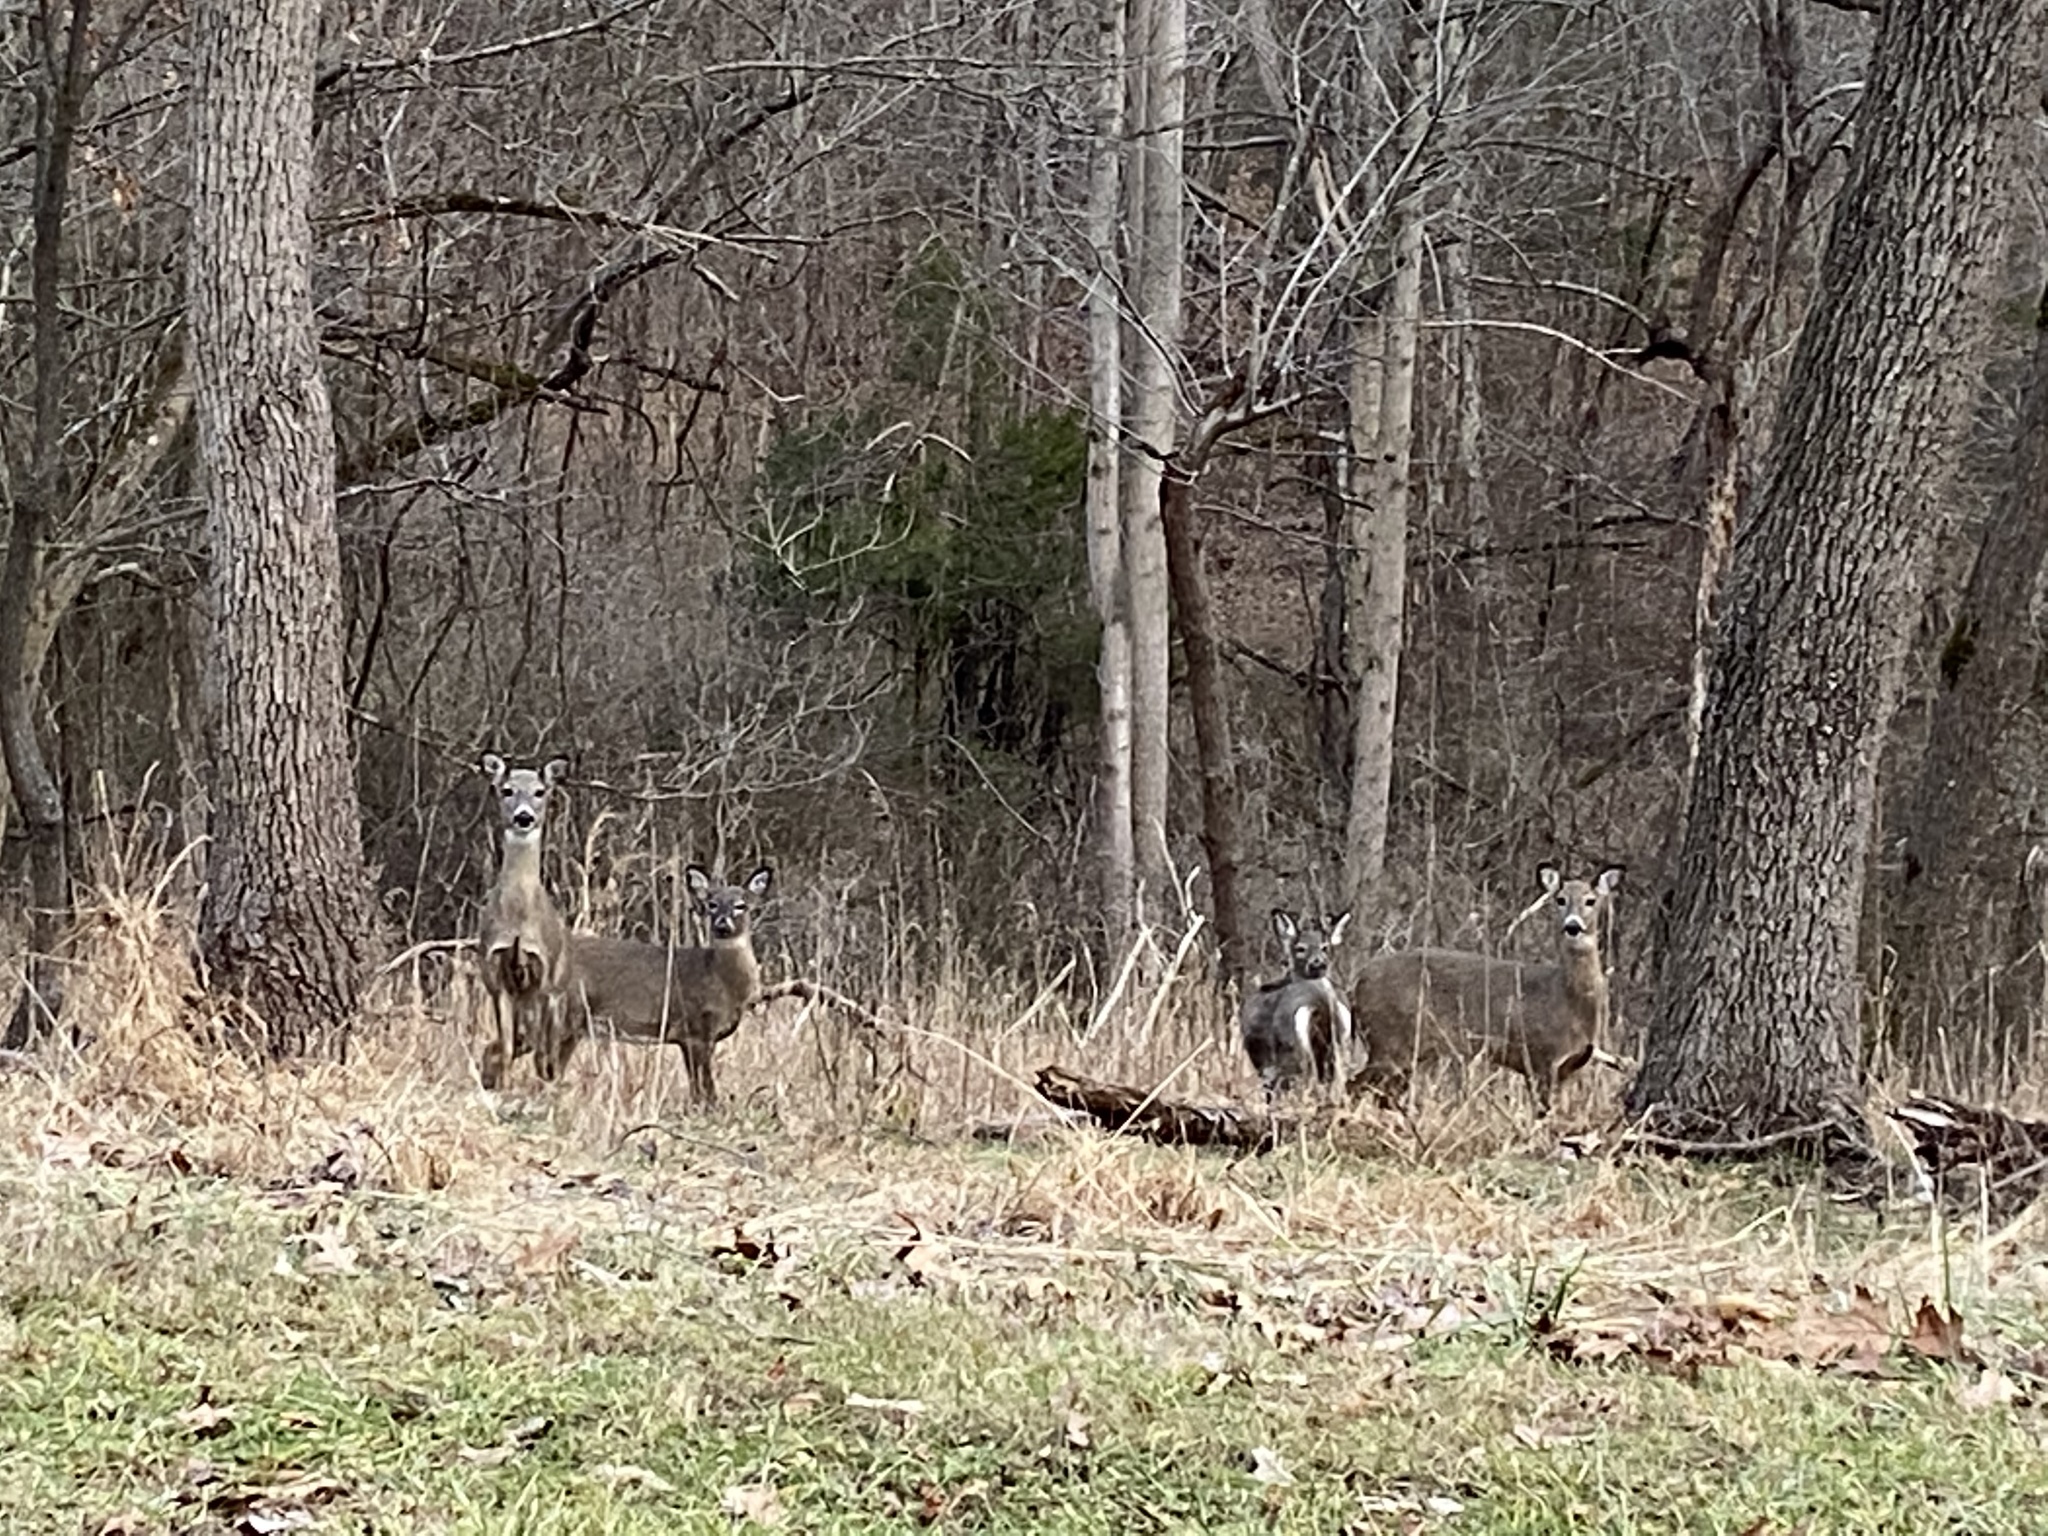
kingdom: Animalia
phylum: Chordata
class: Mammalia
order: Artiodactyla
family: Cervidae
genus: Odocoileus
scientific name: Odocoileus virginianus
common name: White-tailed deer
